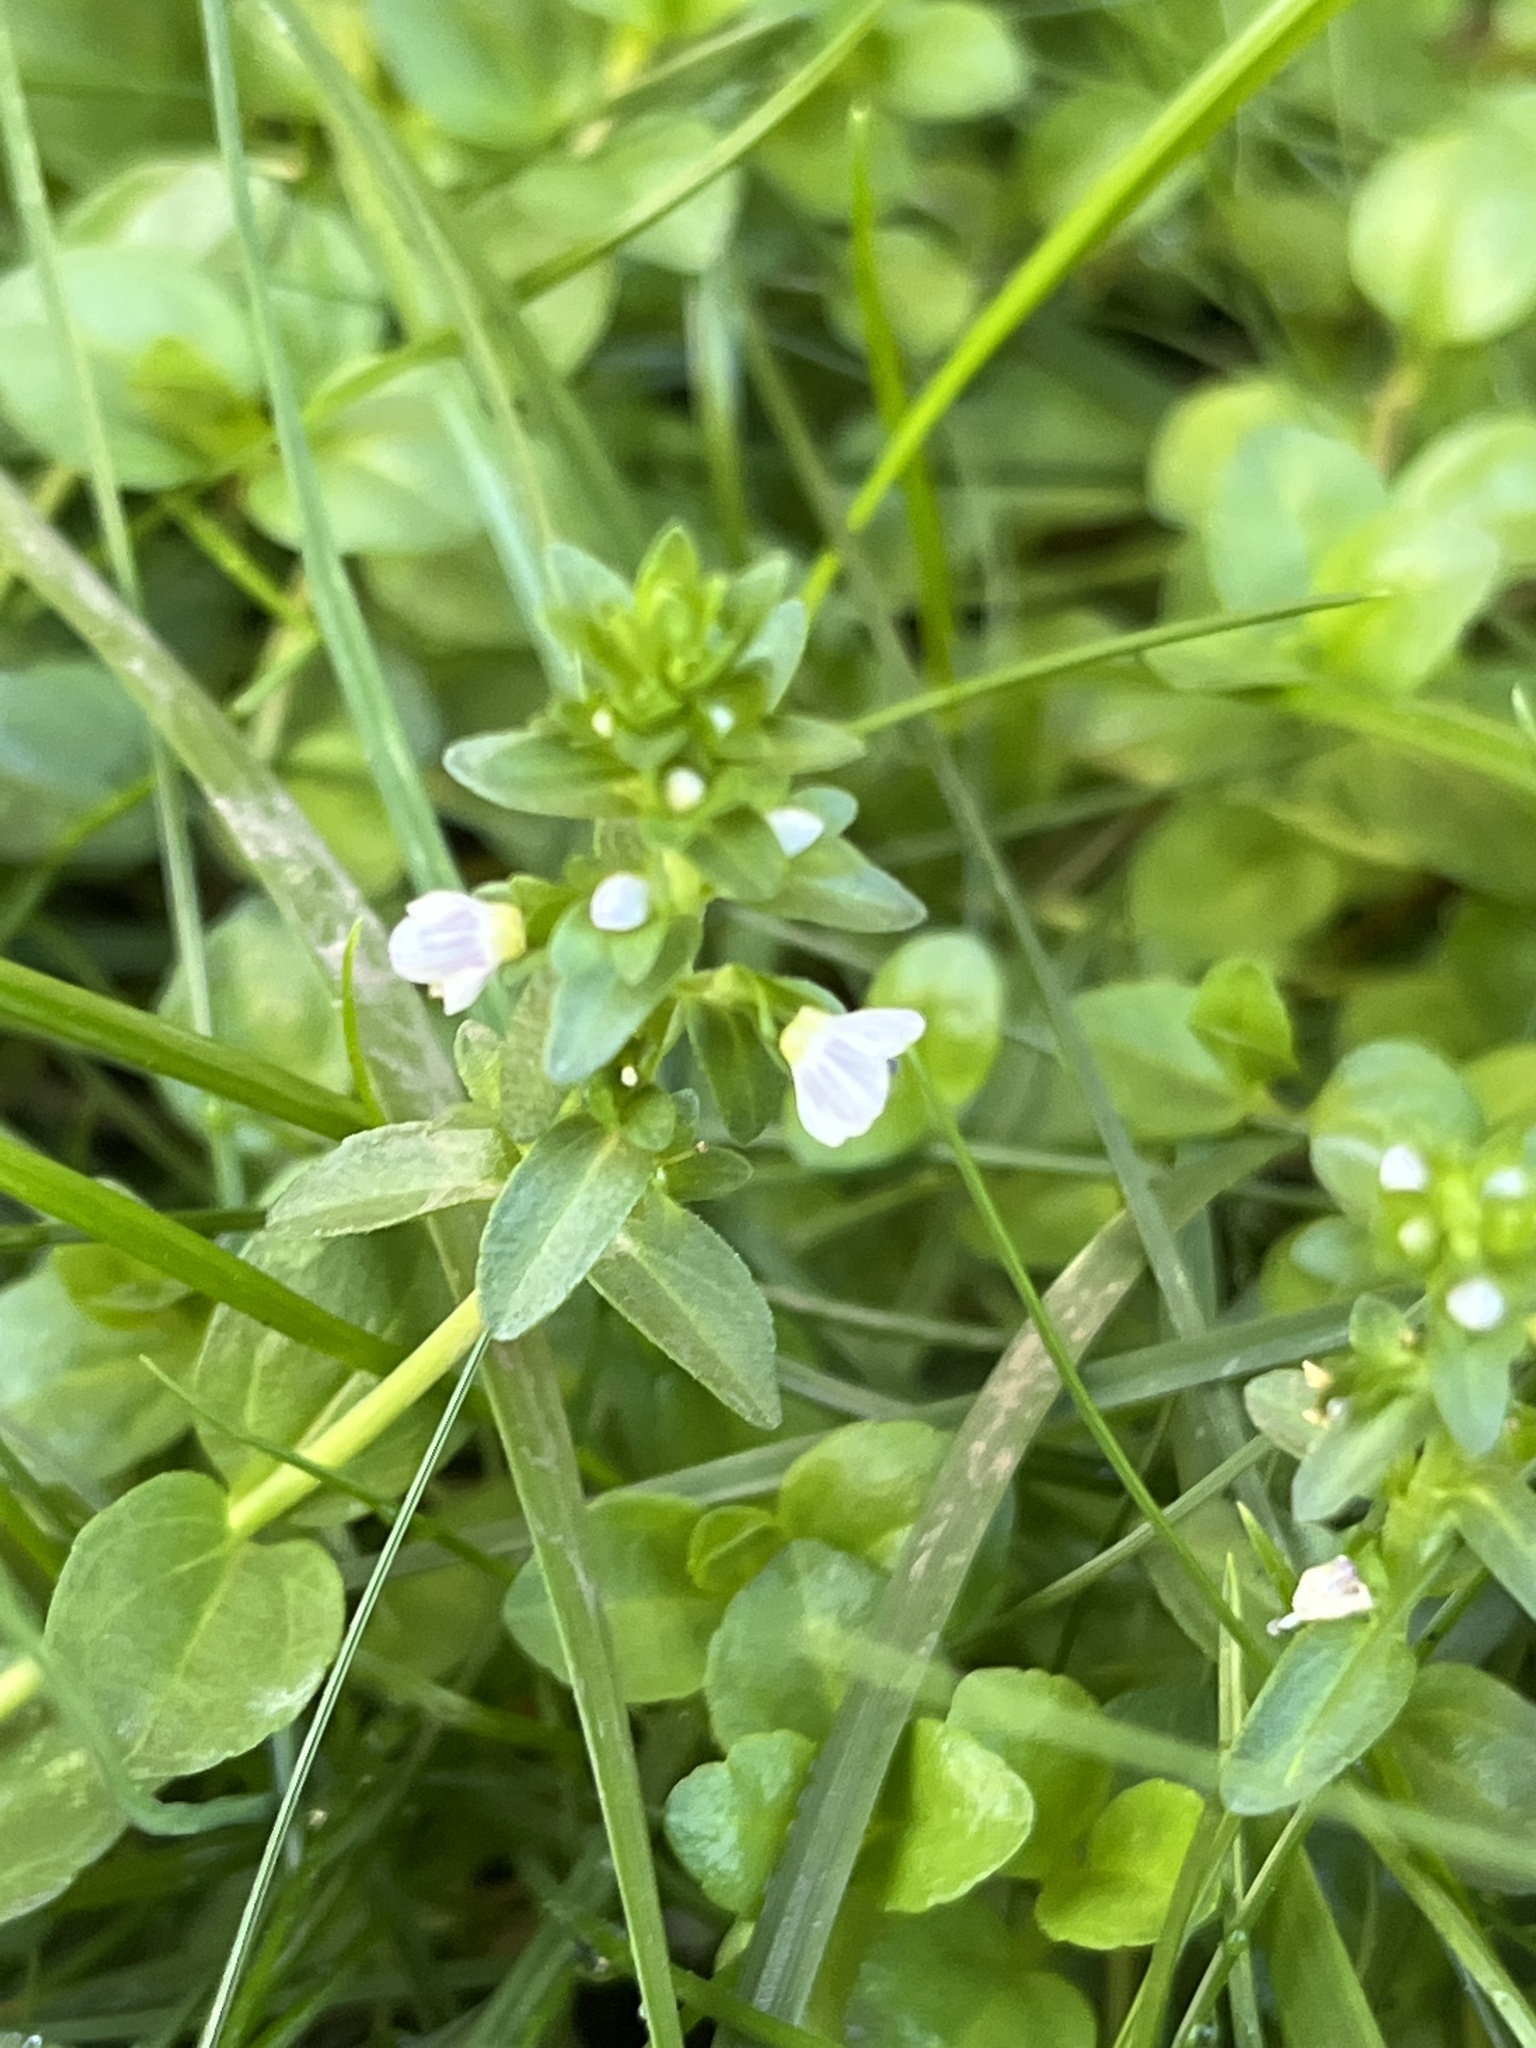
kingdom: Plantae
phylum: Tracheophyta
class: Magnoliopsida
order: Lamiales
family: Plantaginaceae
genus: Veronica
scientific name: Veronica serpyllifolia
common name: Thyme-leaved speedwell
